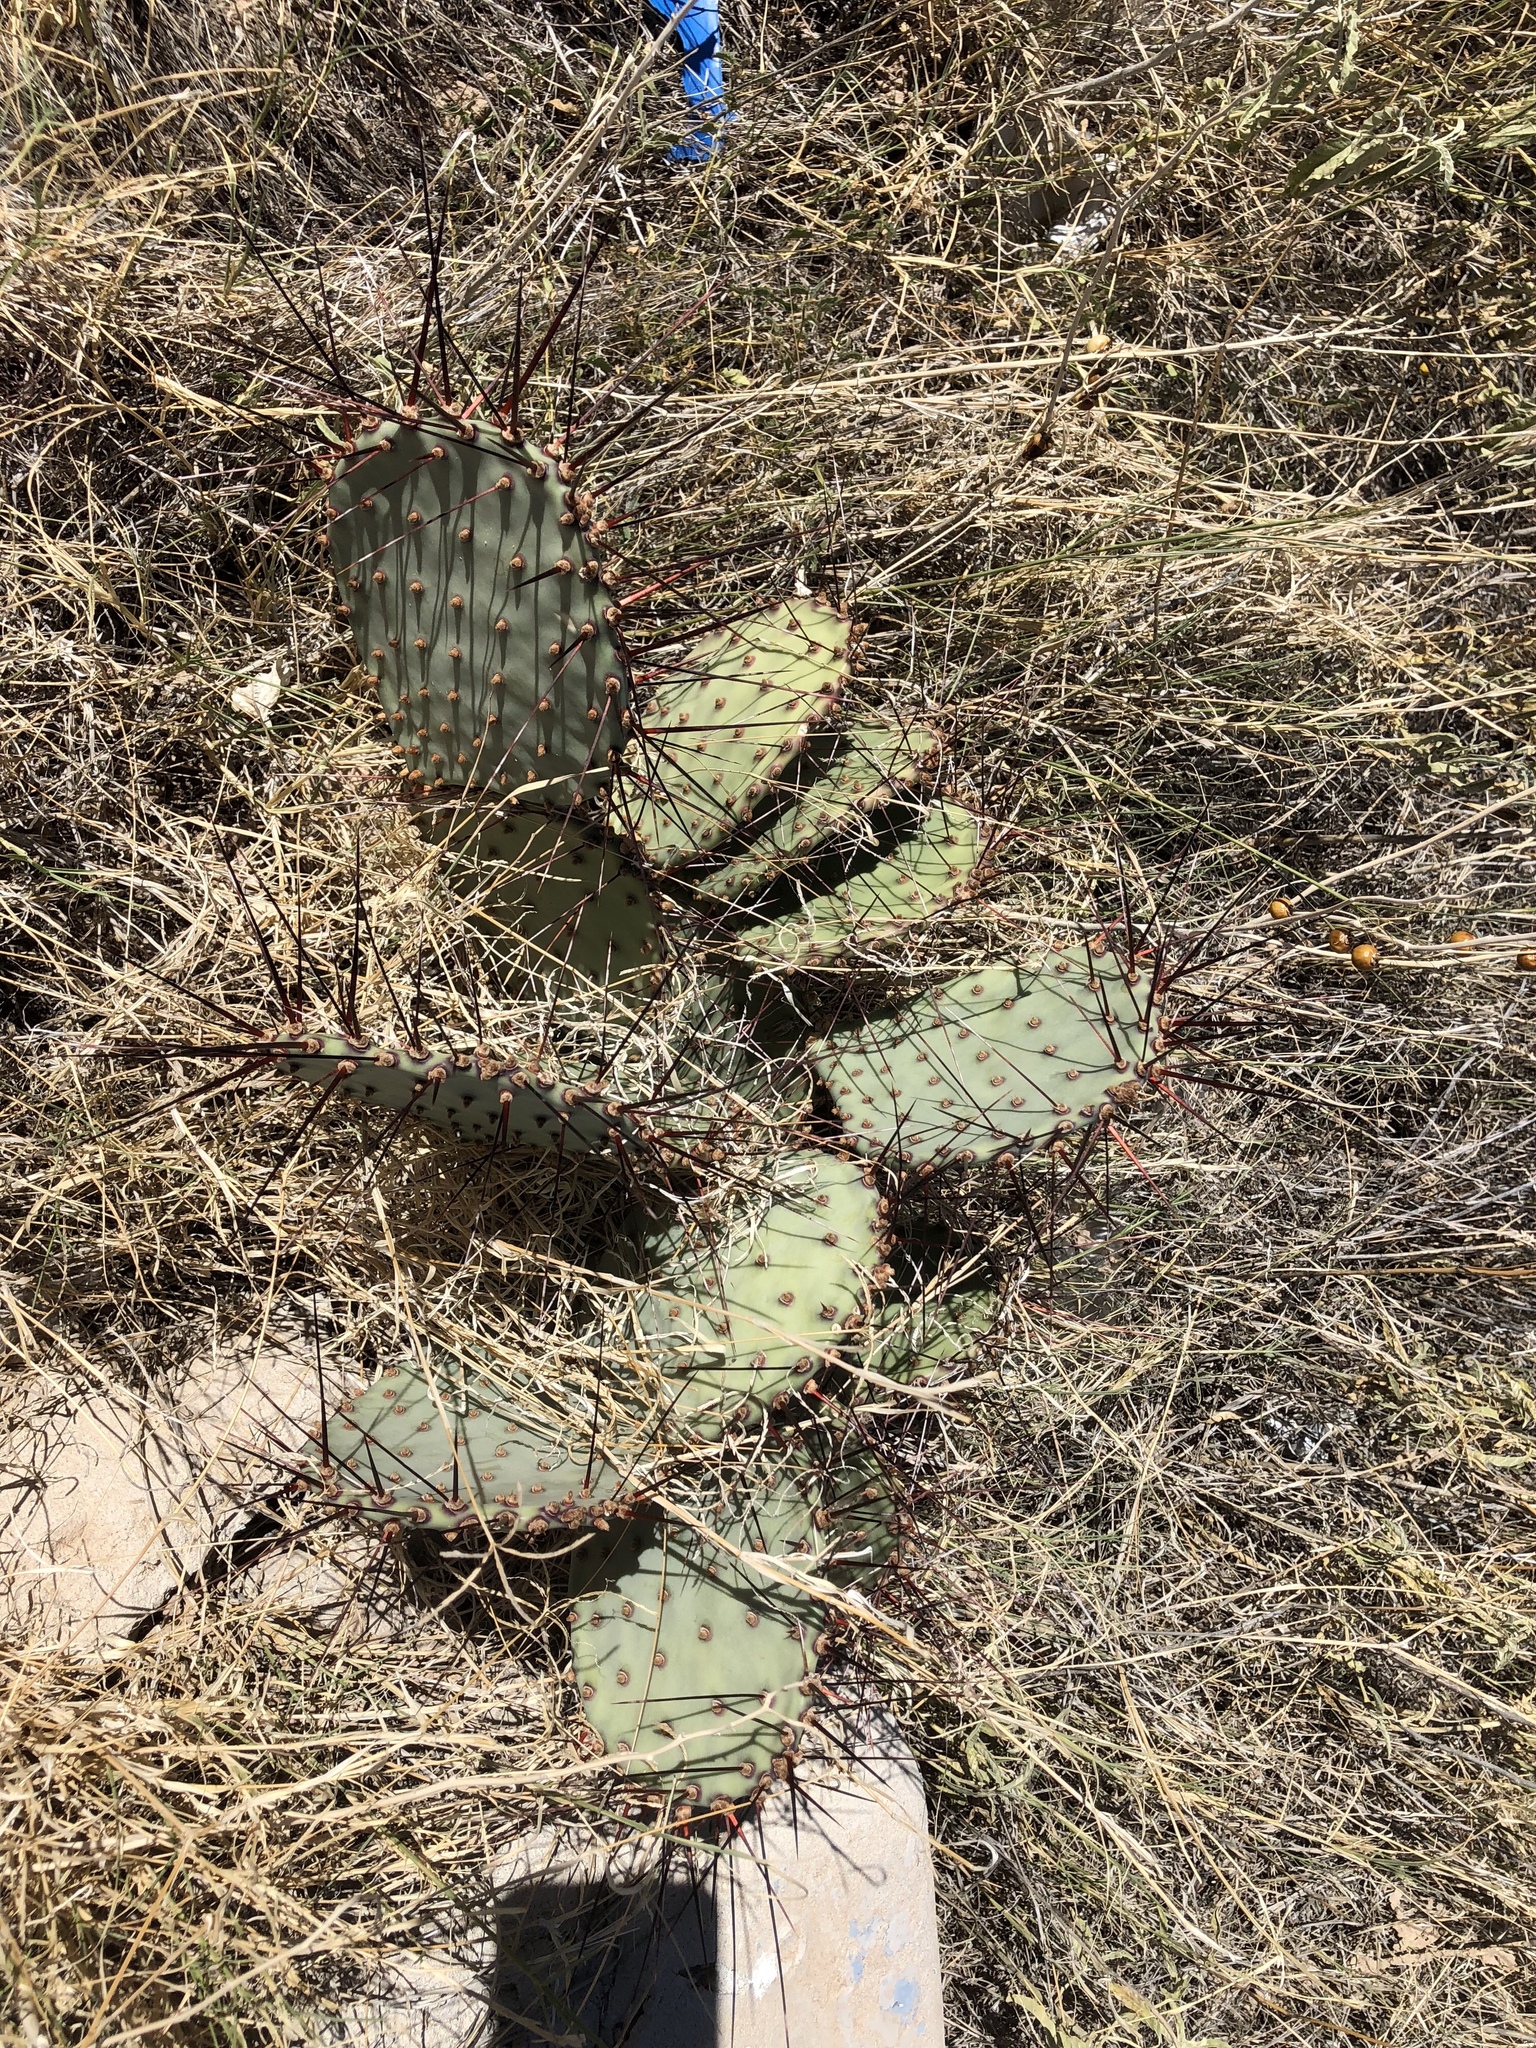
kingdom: Plantae
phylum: Tracheophyta
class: Magnoliopsida
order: Caryophyllales
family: Cactaceae
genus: Opuntia
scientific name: Opuntia macrocentra
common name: Purple prickly-pear
